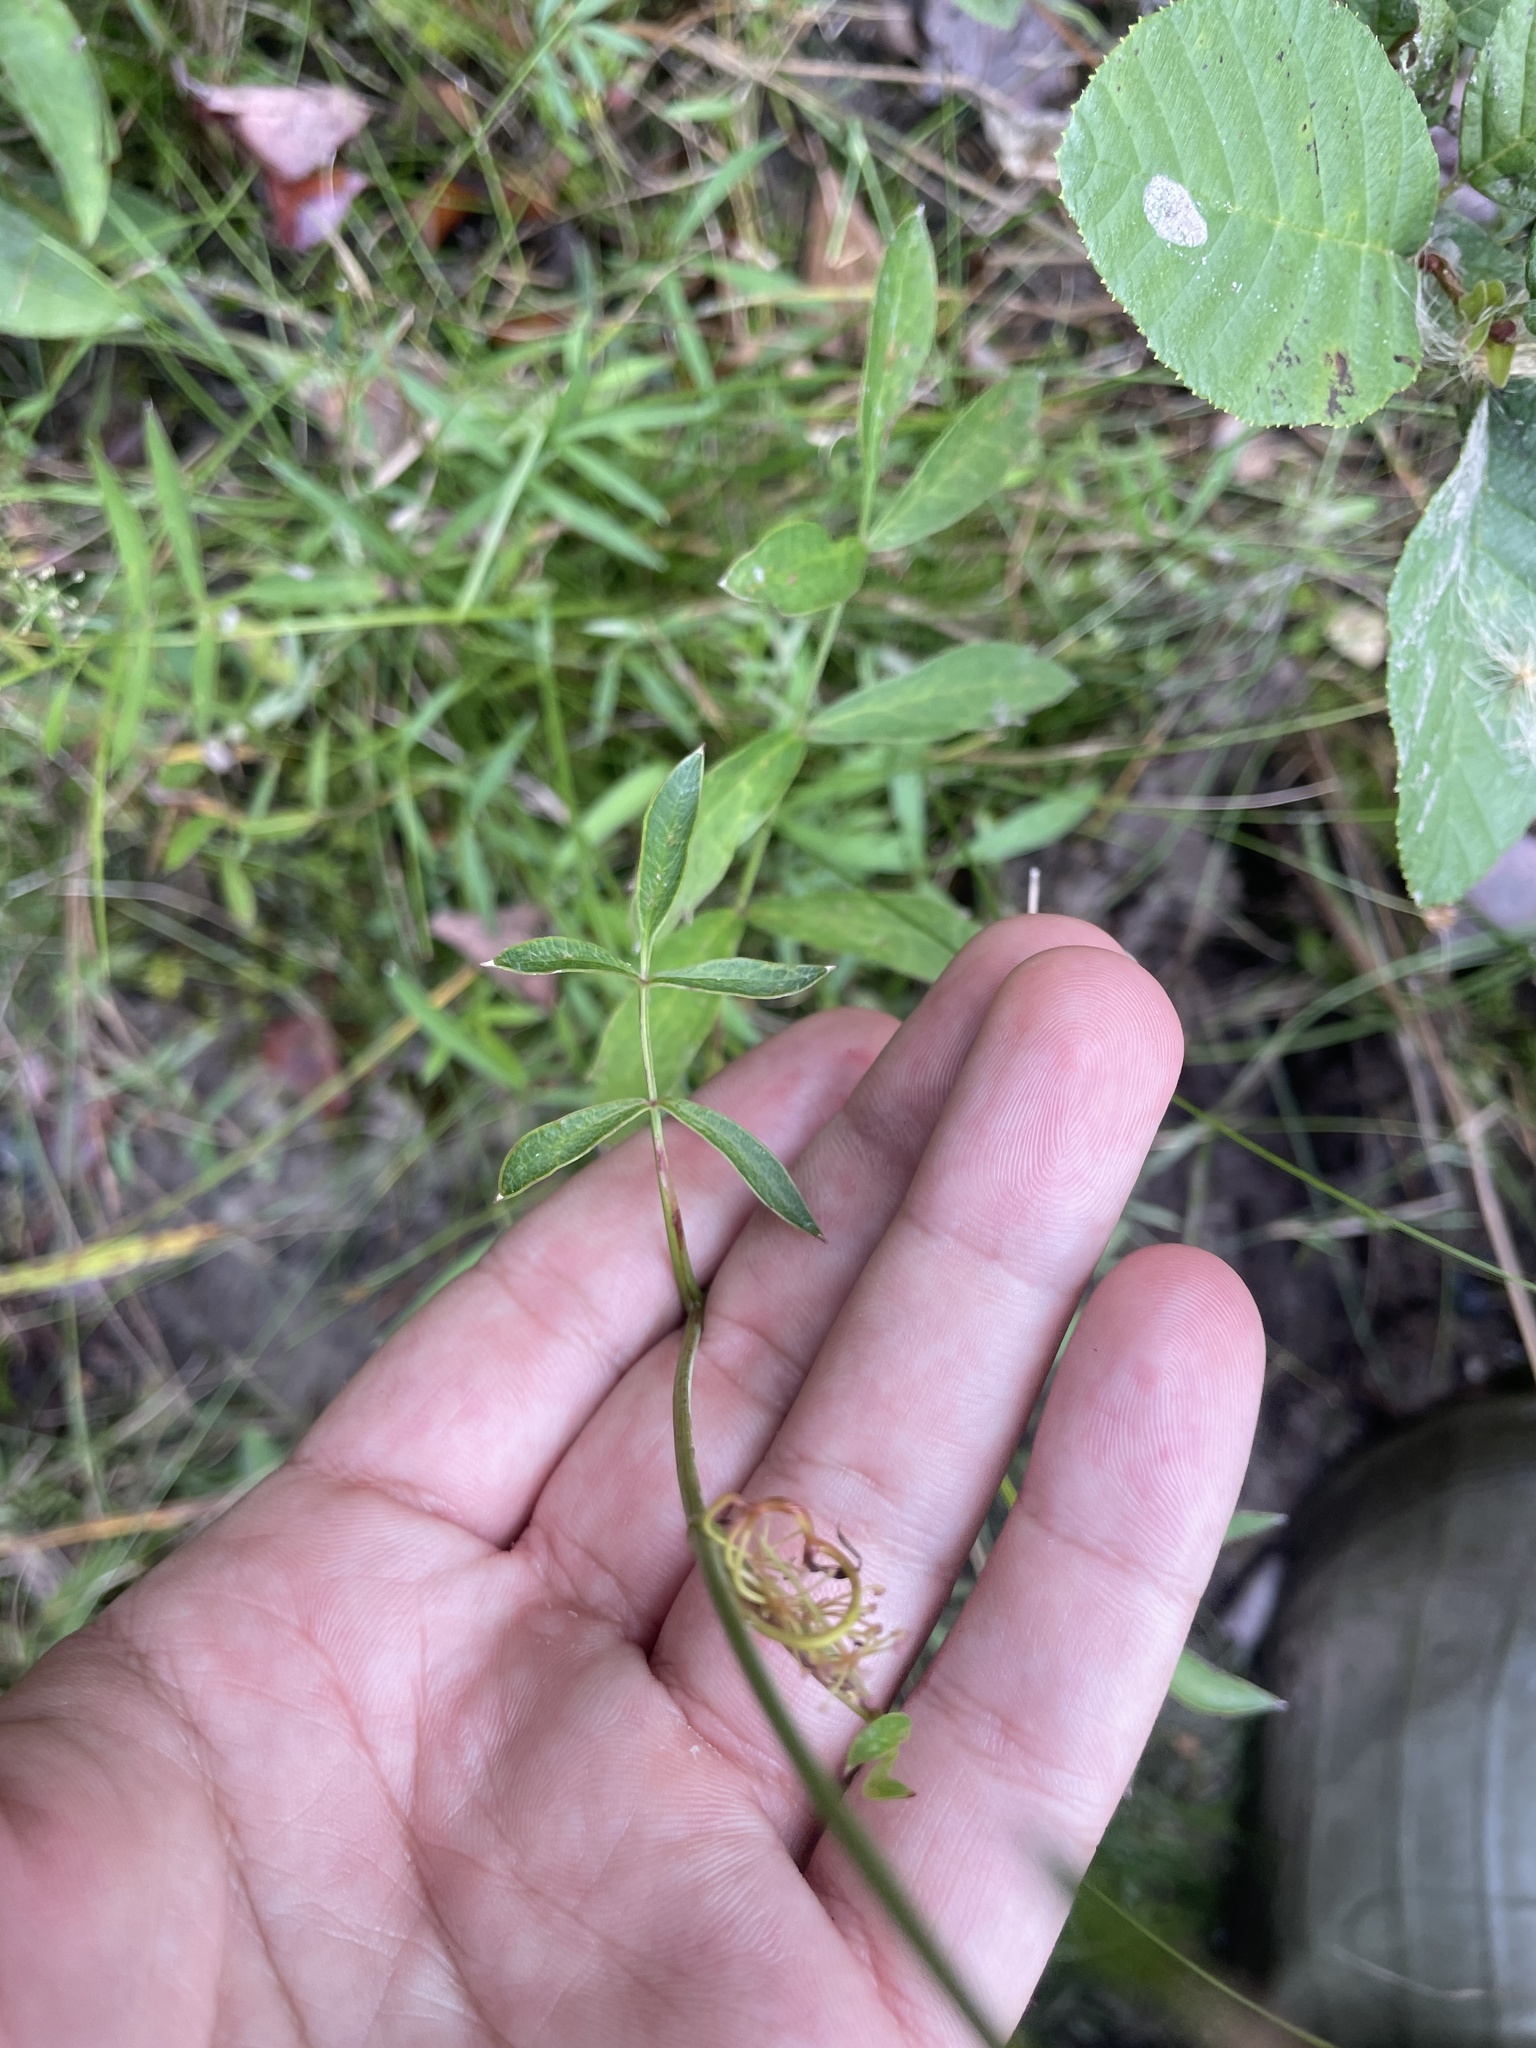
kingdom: Plantae
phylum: Tracheophyta
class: Magnoliopsida
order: Apiales
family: Apiaceae
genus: Oxypolis
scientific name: Oxypolis rigidior
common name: Cowbane
